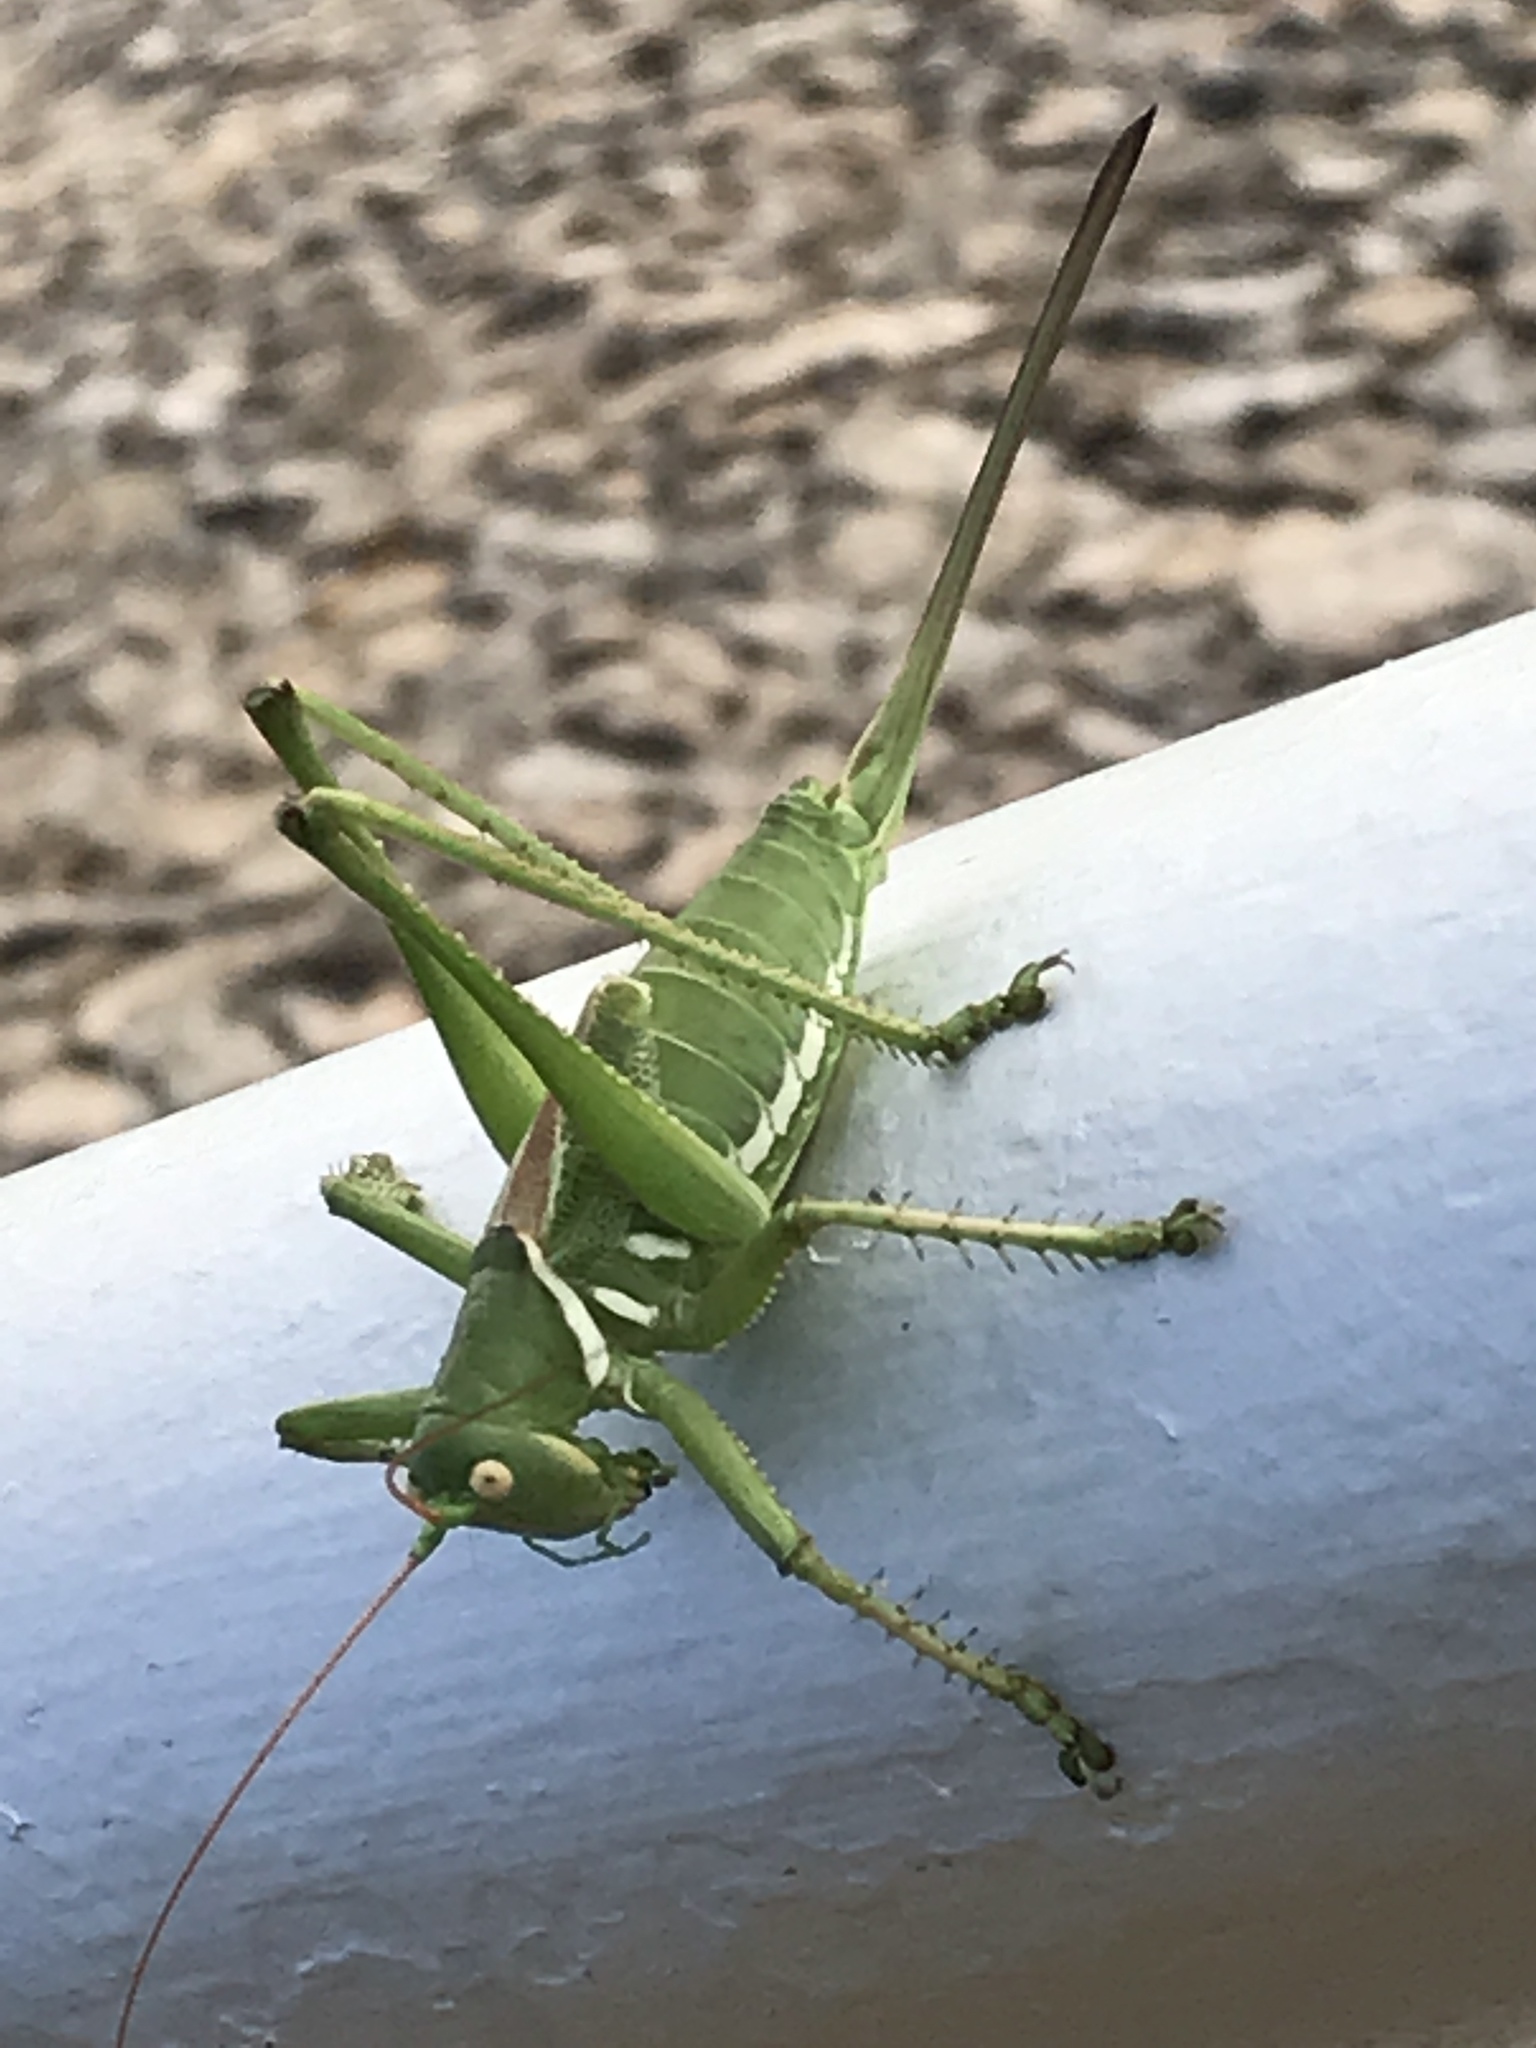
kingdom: Animalia
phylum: Arthropoda
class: Insecta
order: Orthoptera
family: Tettigoniidae
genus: Neobarrettia
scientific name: Neobarrettia victoriae
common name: Lesser arid-land katydid
